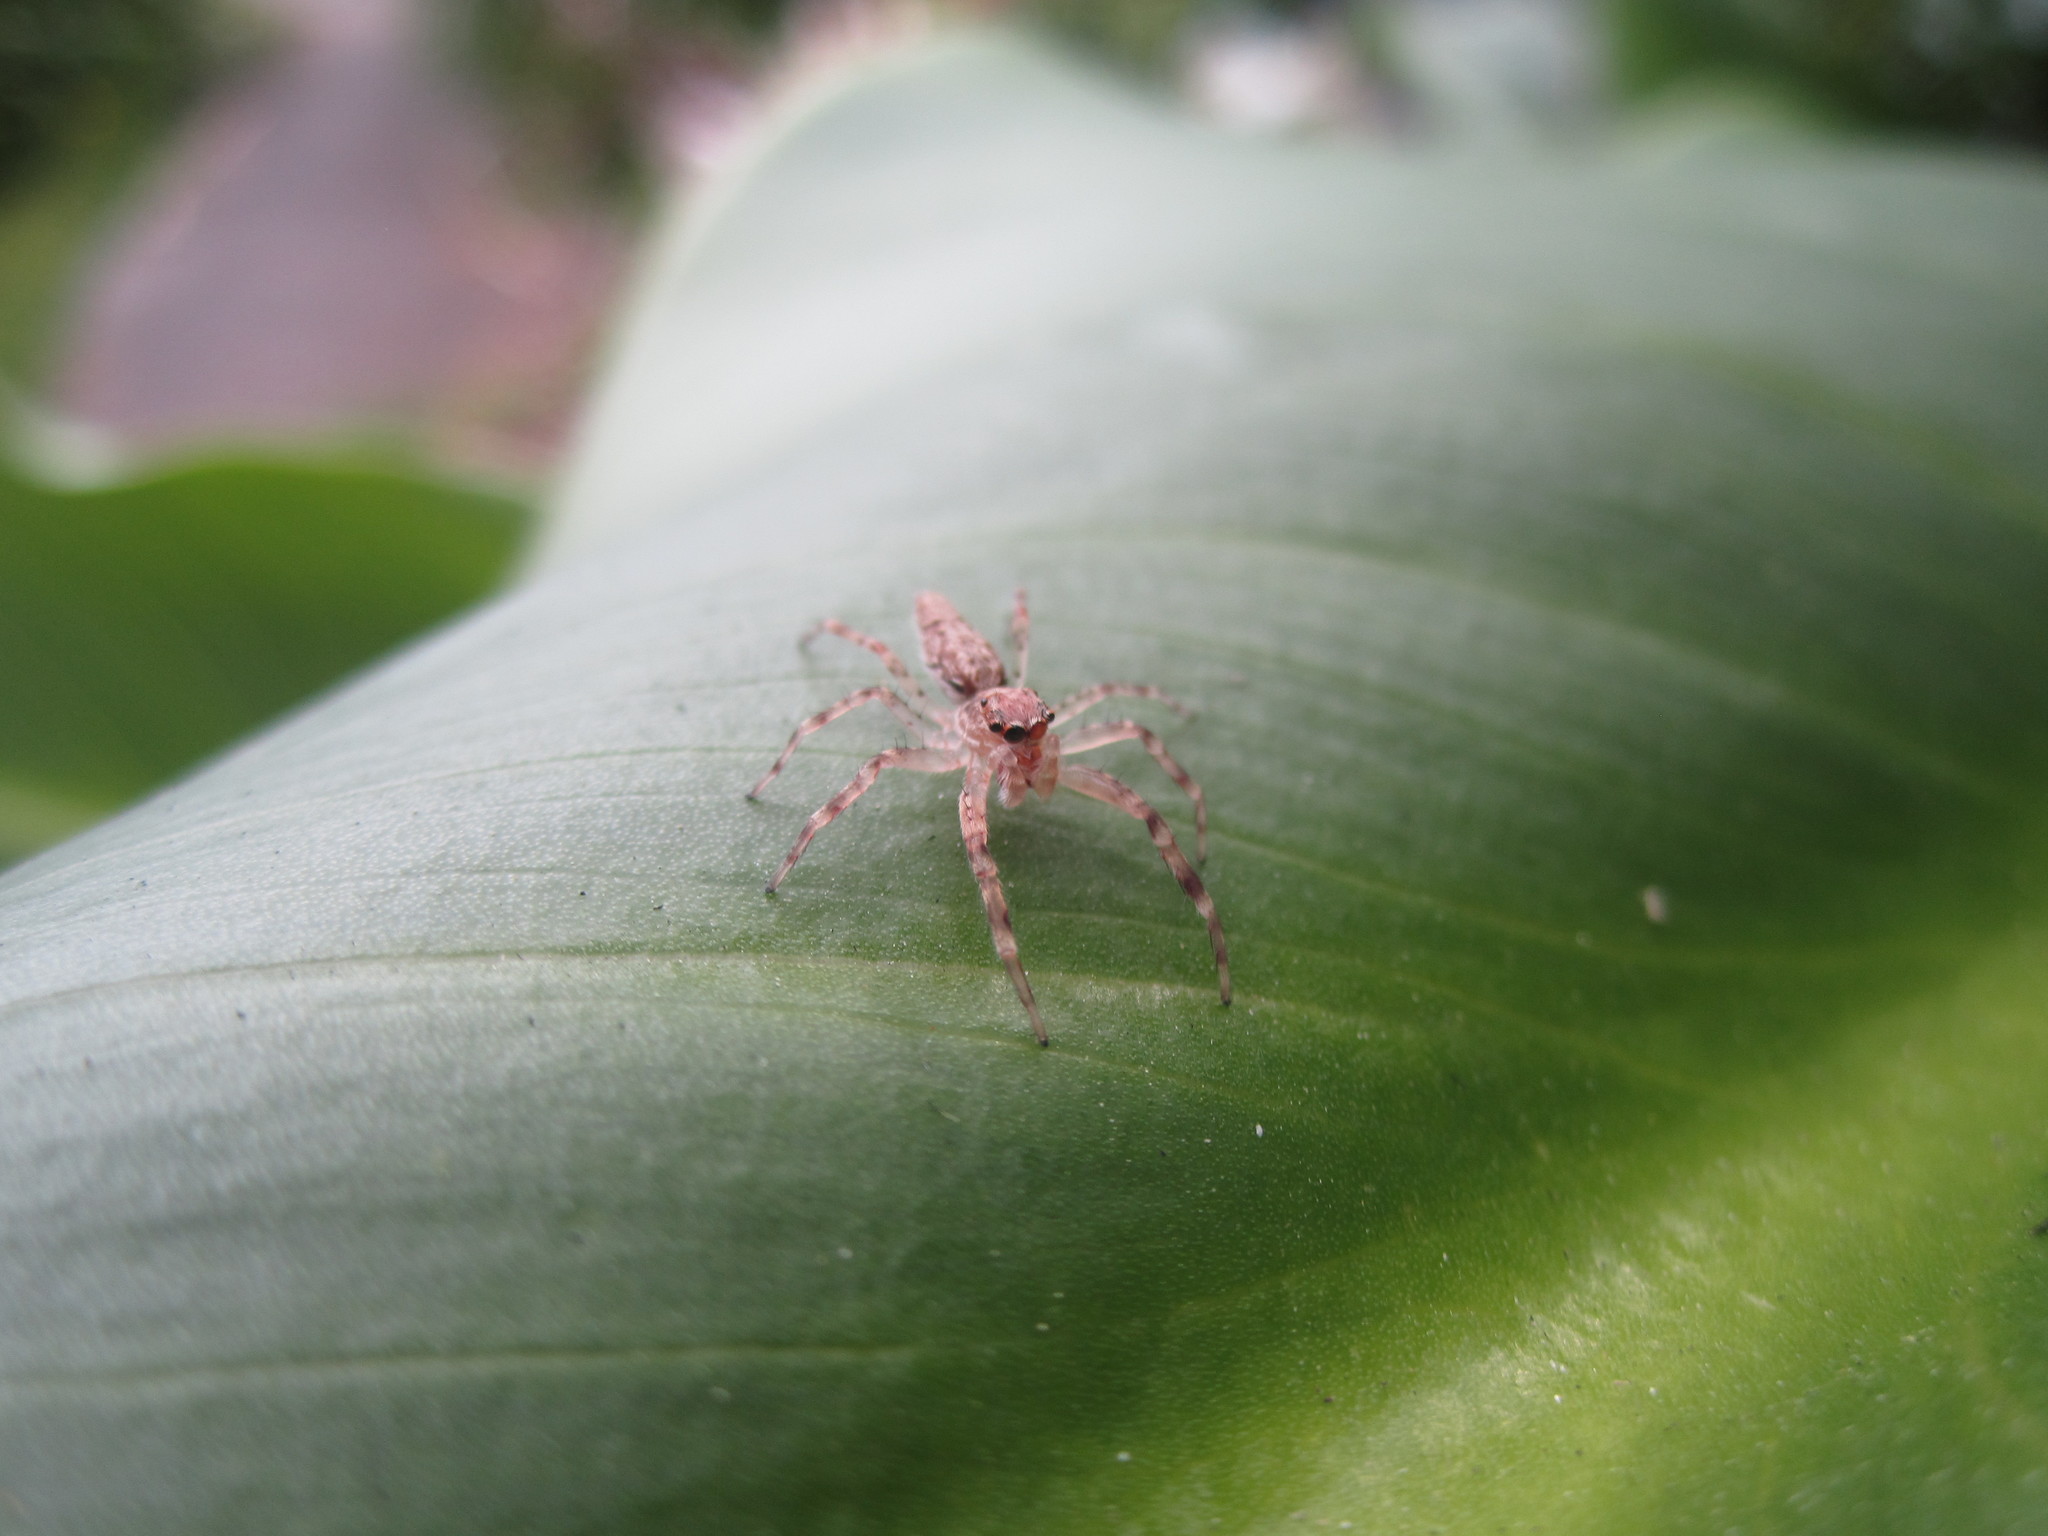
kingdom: Animalia
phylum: Arthropoda
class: Arachnida
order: Araneae
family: Salticidae
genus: Helpis
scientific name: Helpis minitabunda
